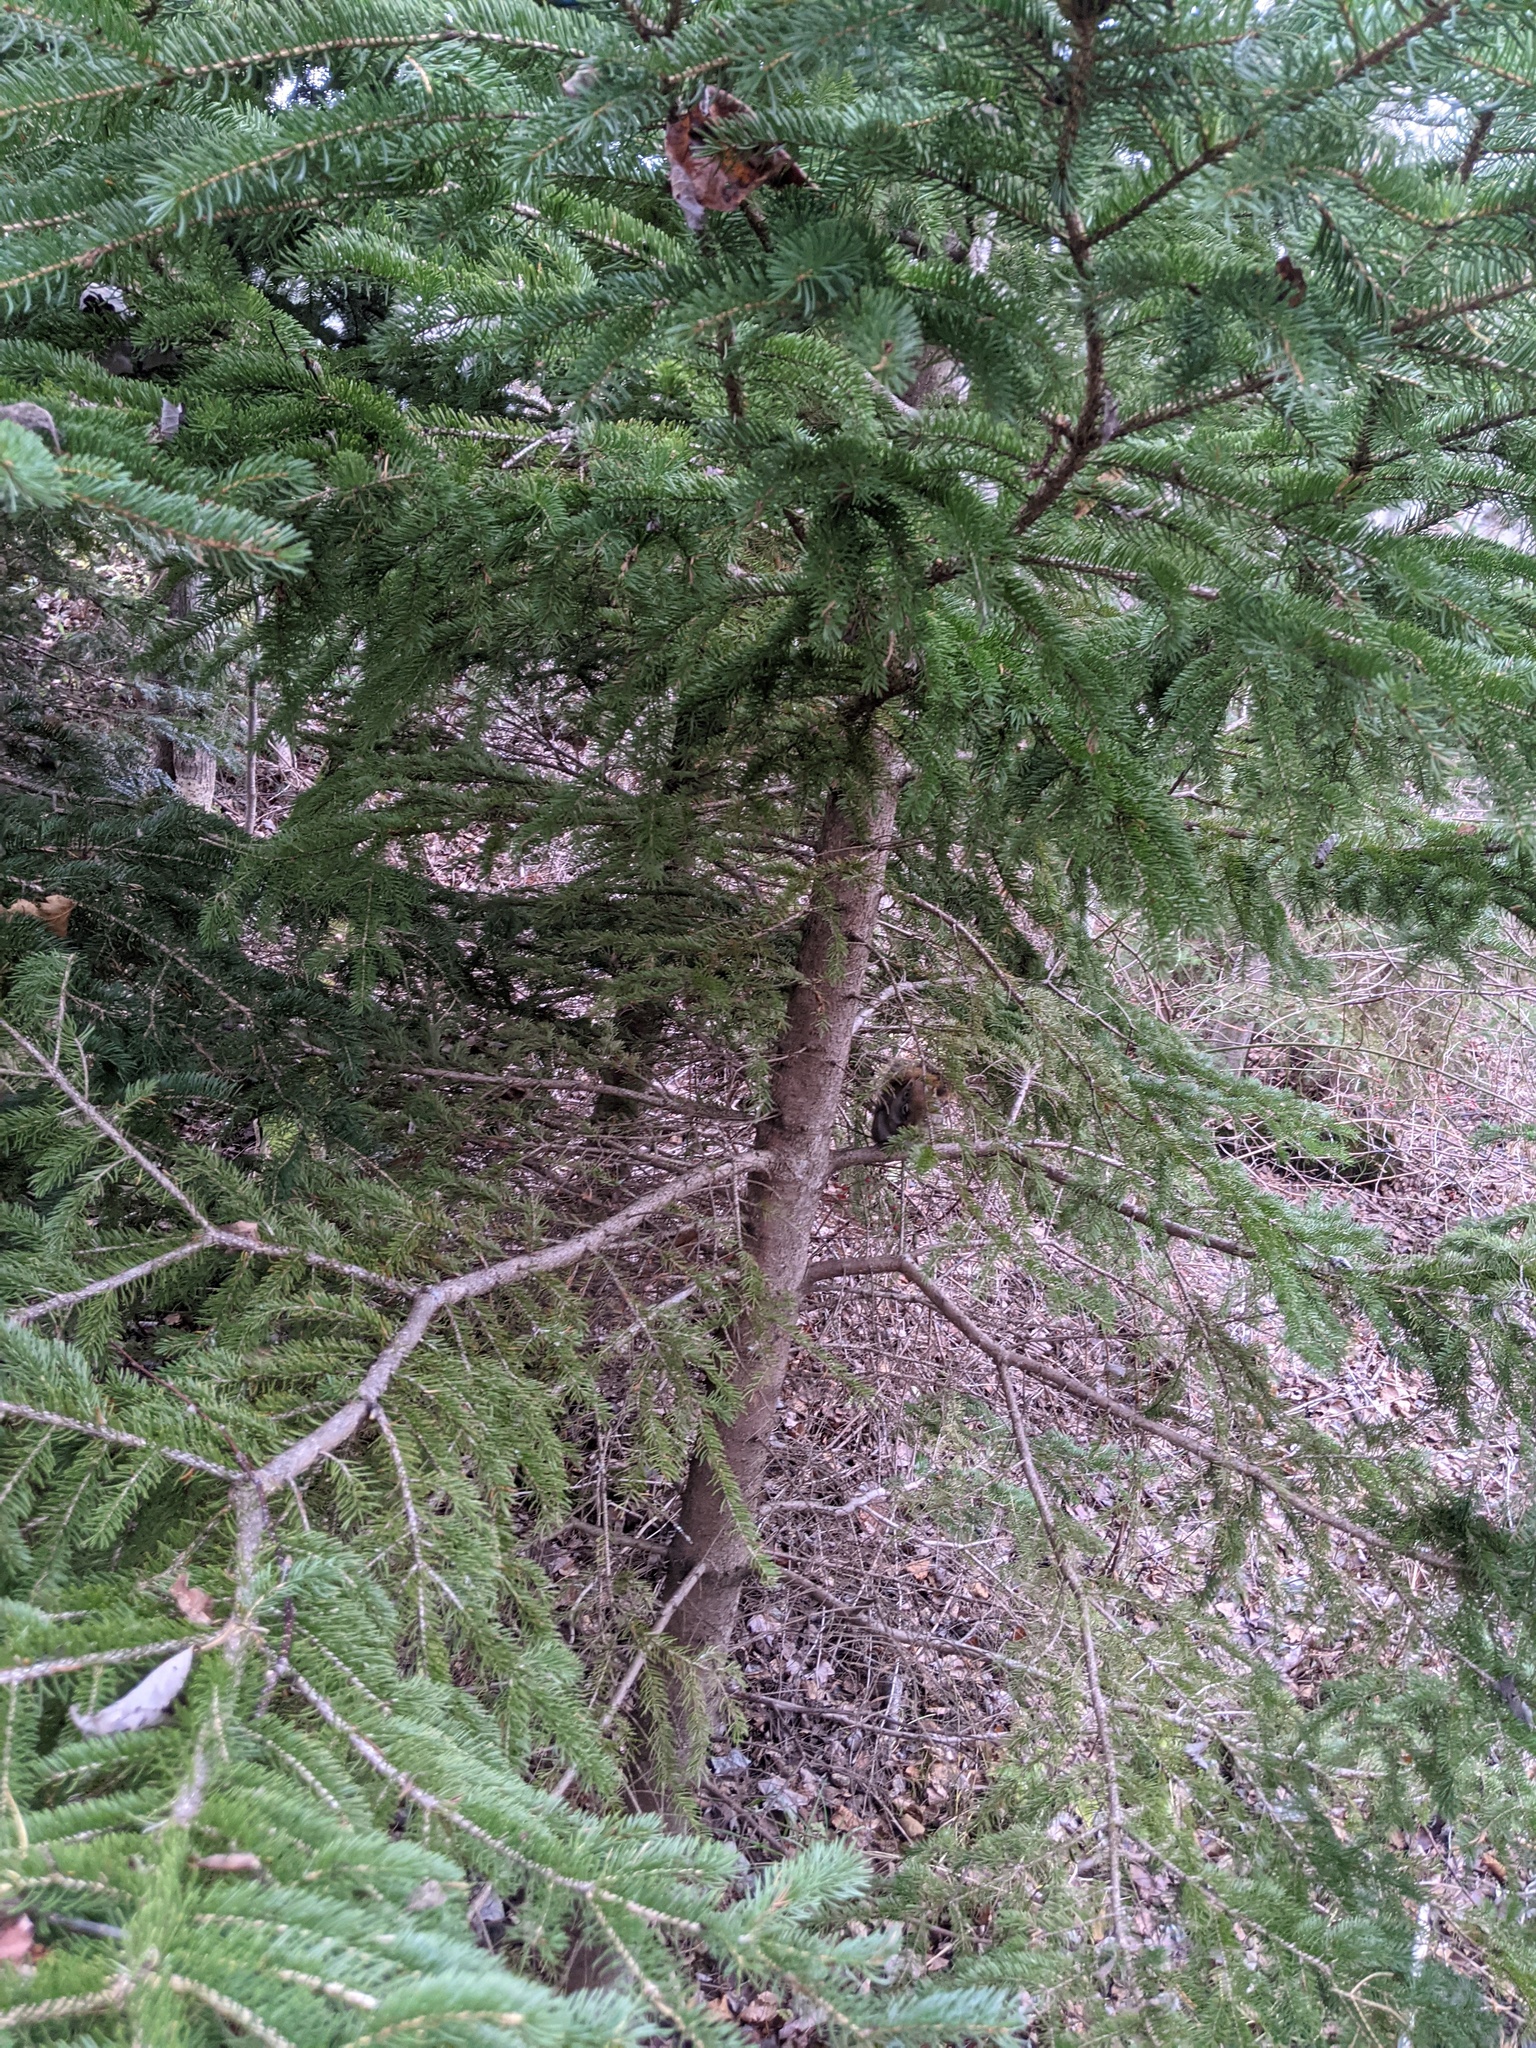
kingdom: Animalia
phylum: Chordata
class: Mammalia
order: Rodentia
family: Sciuridae
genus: Tamiasciurus
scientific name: Tamiasciurus hudsonicus
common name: Red squirrel
